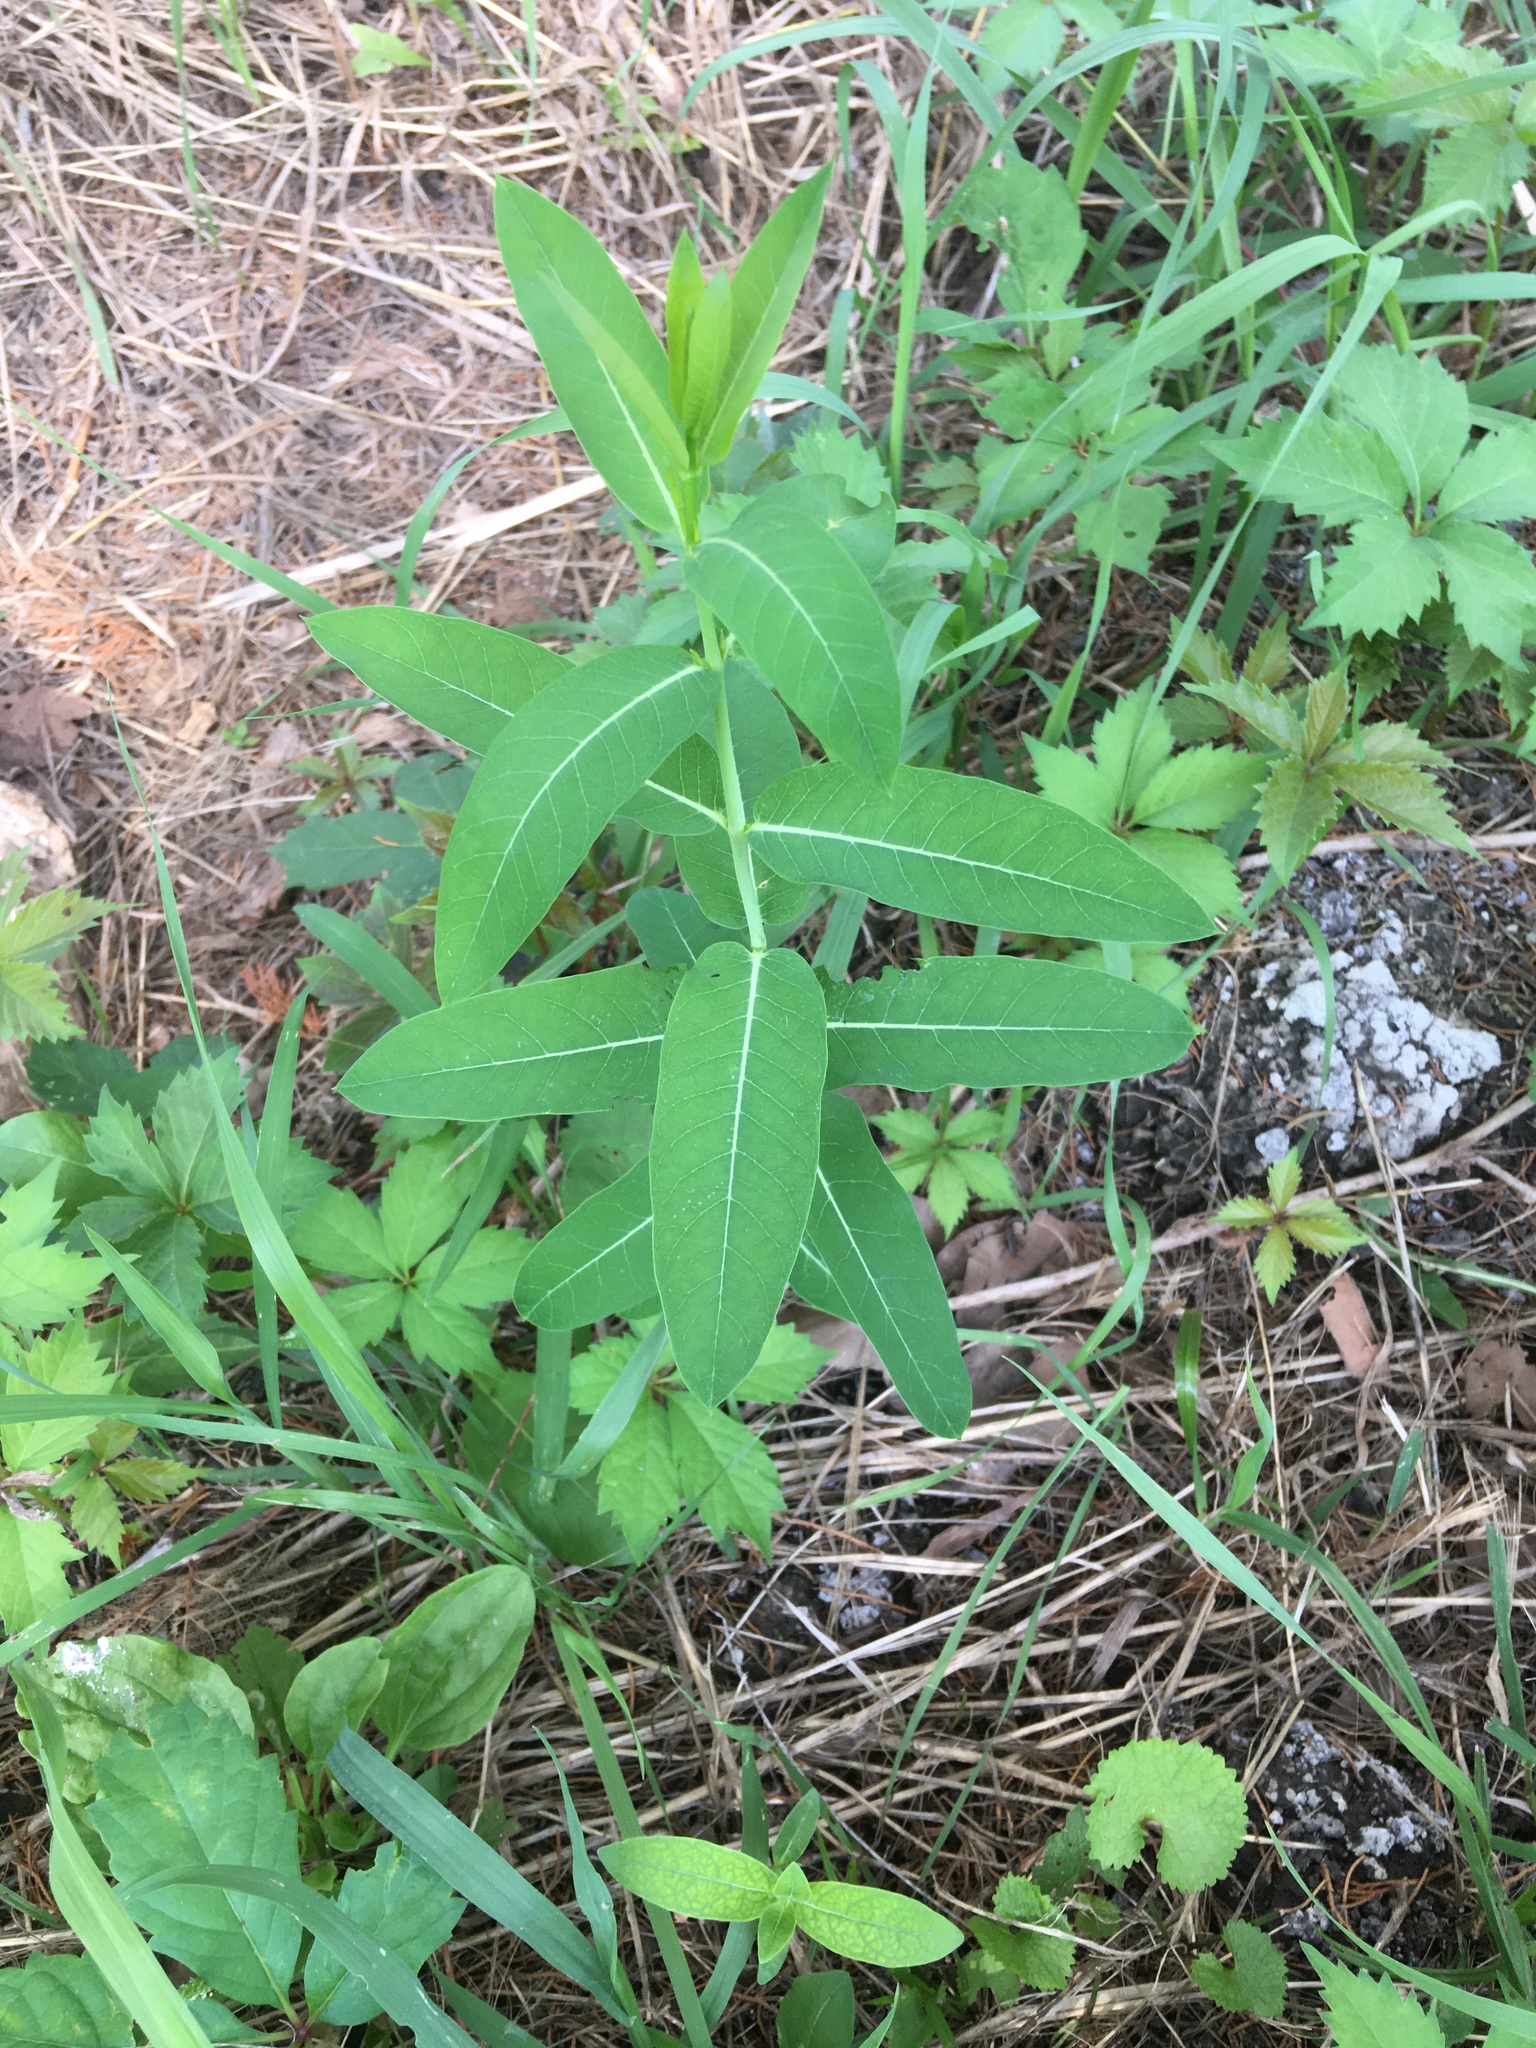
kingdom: Plantae
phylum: Tracheophyta
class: Magnoliopsida
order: Gentianales
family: Apocynaceae
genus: Apocynum
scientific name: Apocynum cannabinum
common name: Hemp dogbane
